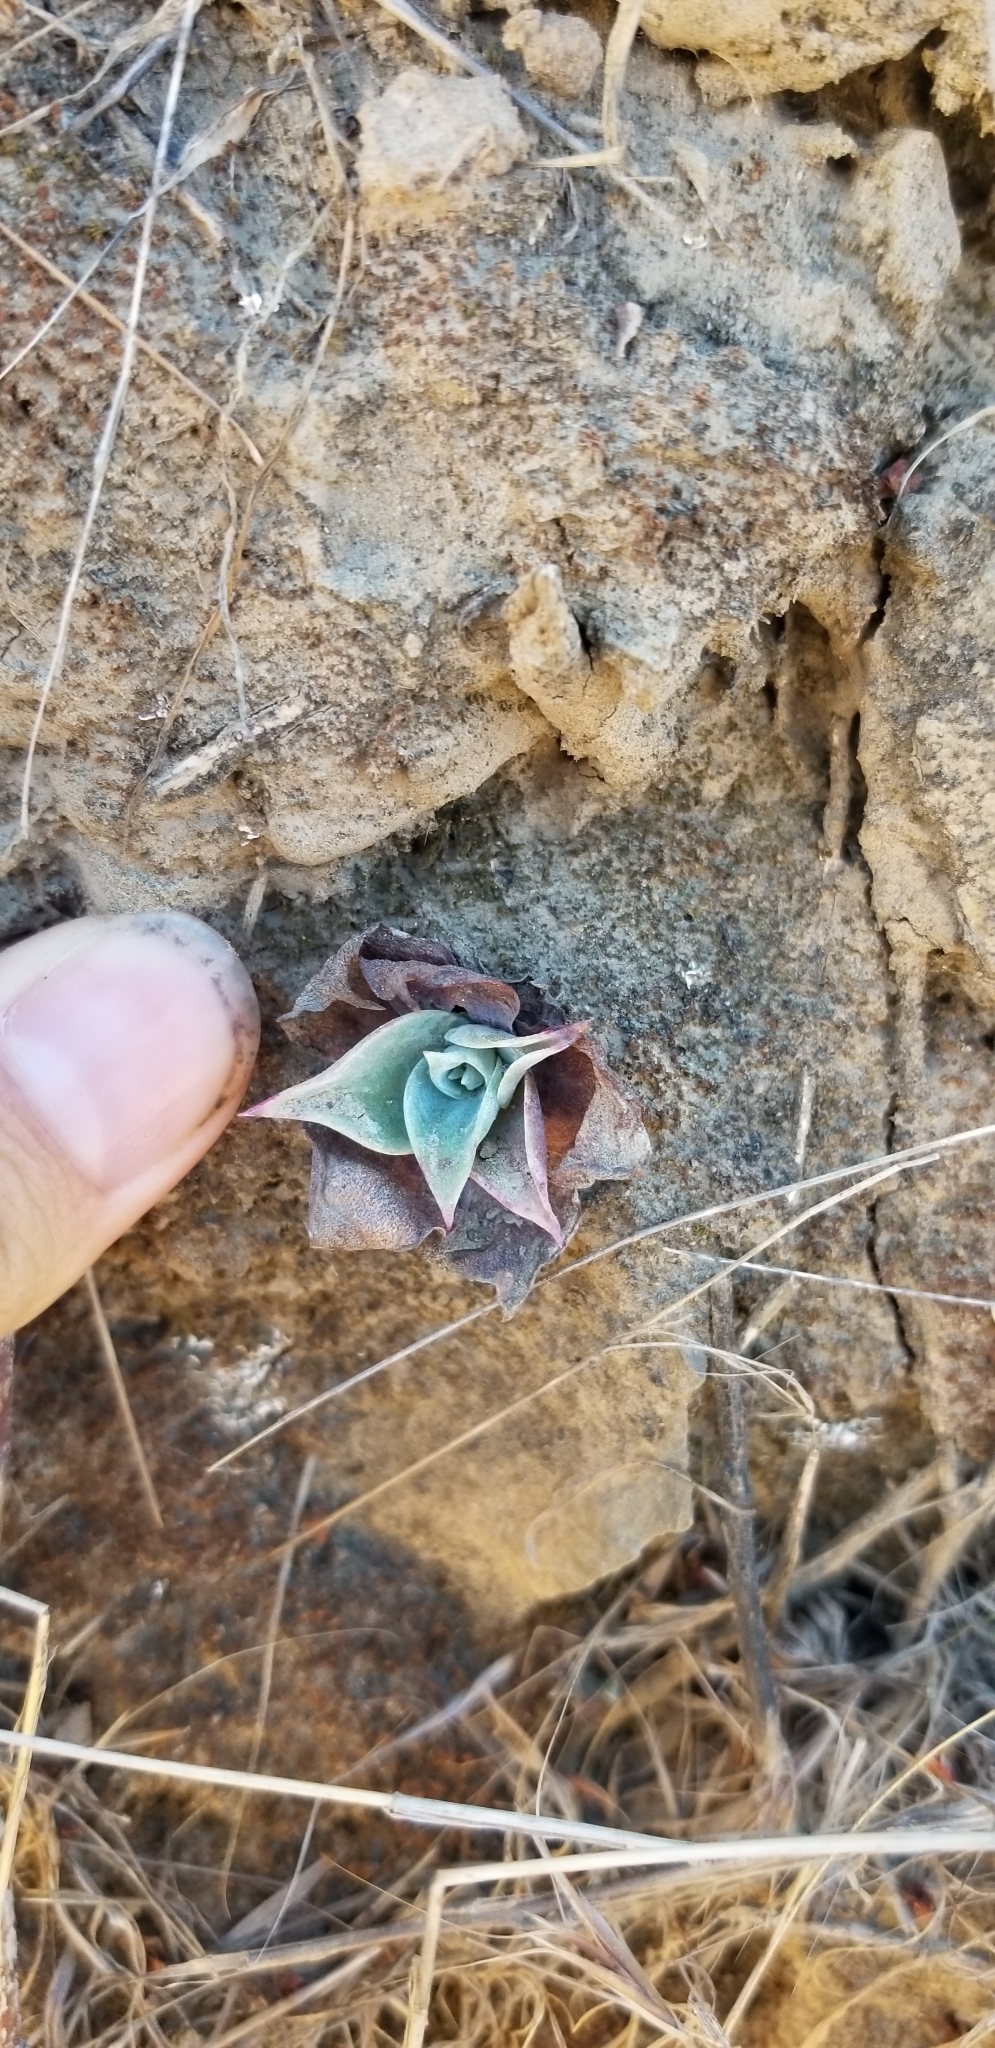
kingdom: Plantae
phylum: Tracheophyta
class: Magnoliopsida
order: Saxifragales
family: Crassulaceae
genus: Dudleya
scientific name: Dudleya pulverulenta
